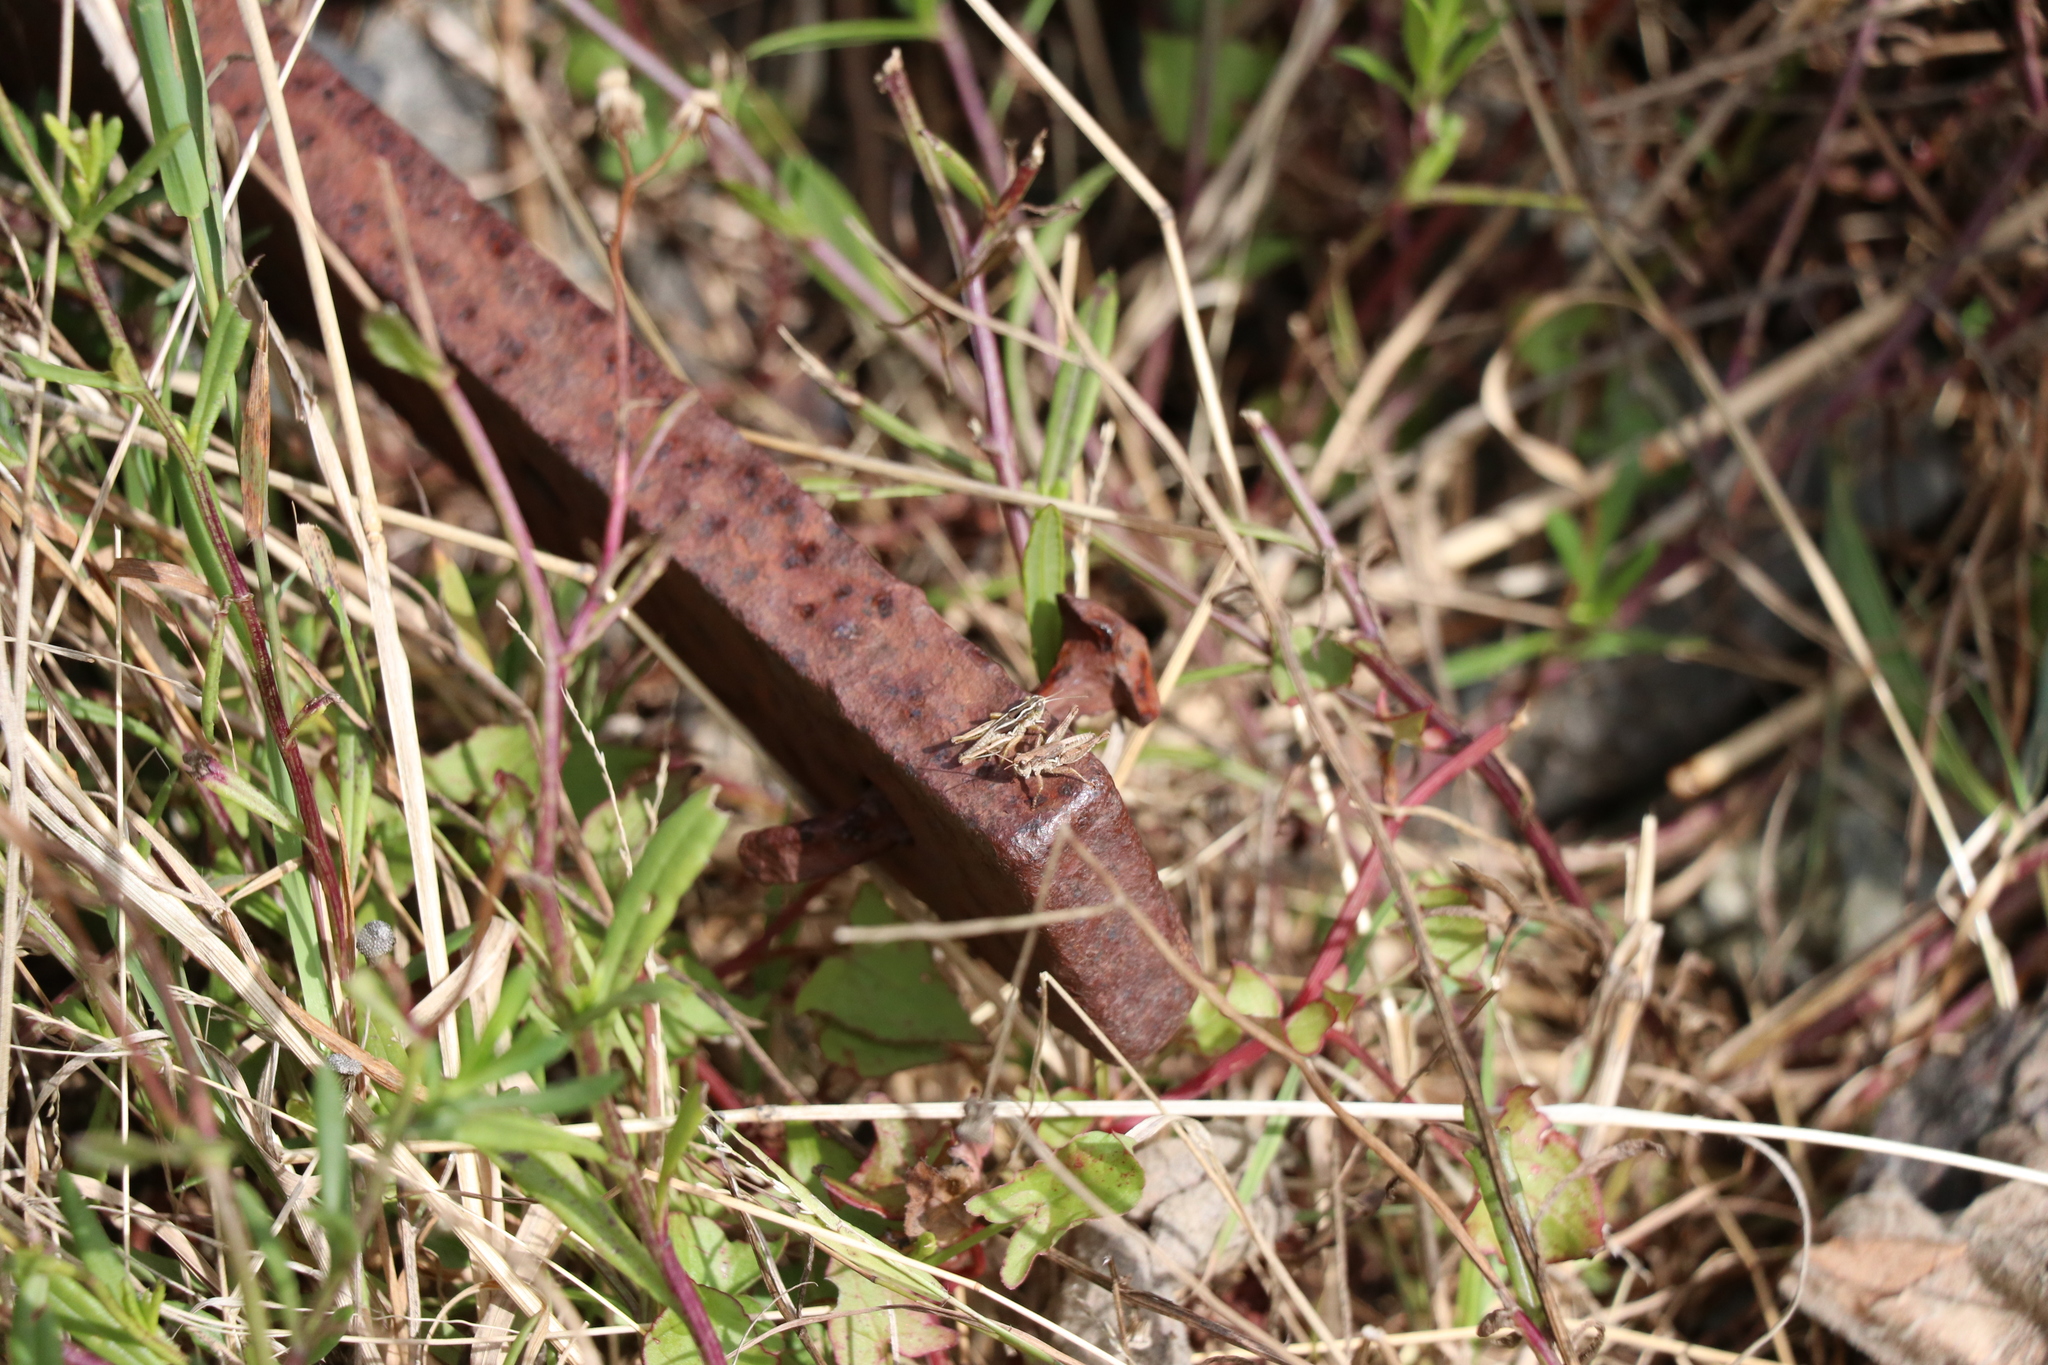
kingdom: Animalia
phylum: Arthropoda
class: Insecta
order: Orthoptera
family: Acrididae
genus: Phaulacridium
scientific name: Phaulacridium marginale
